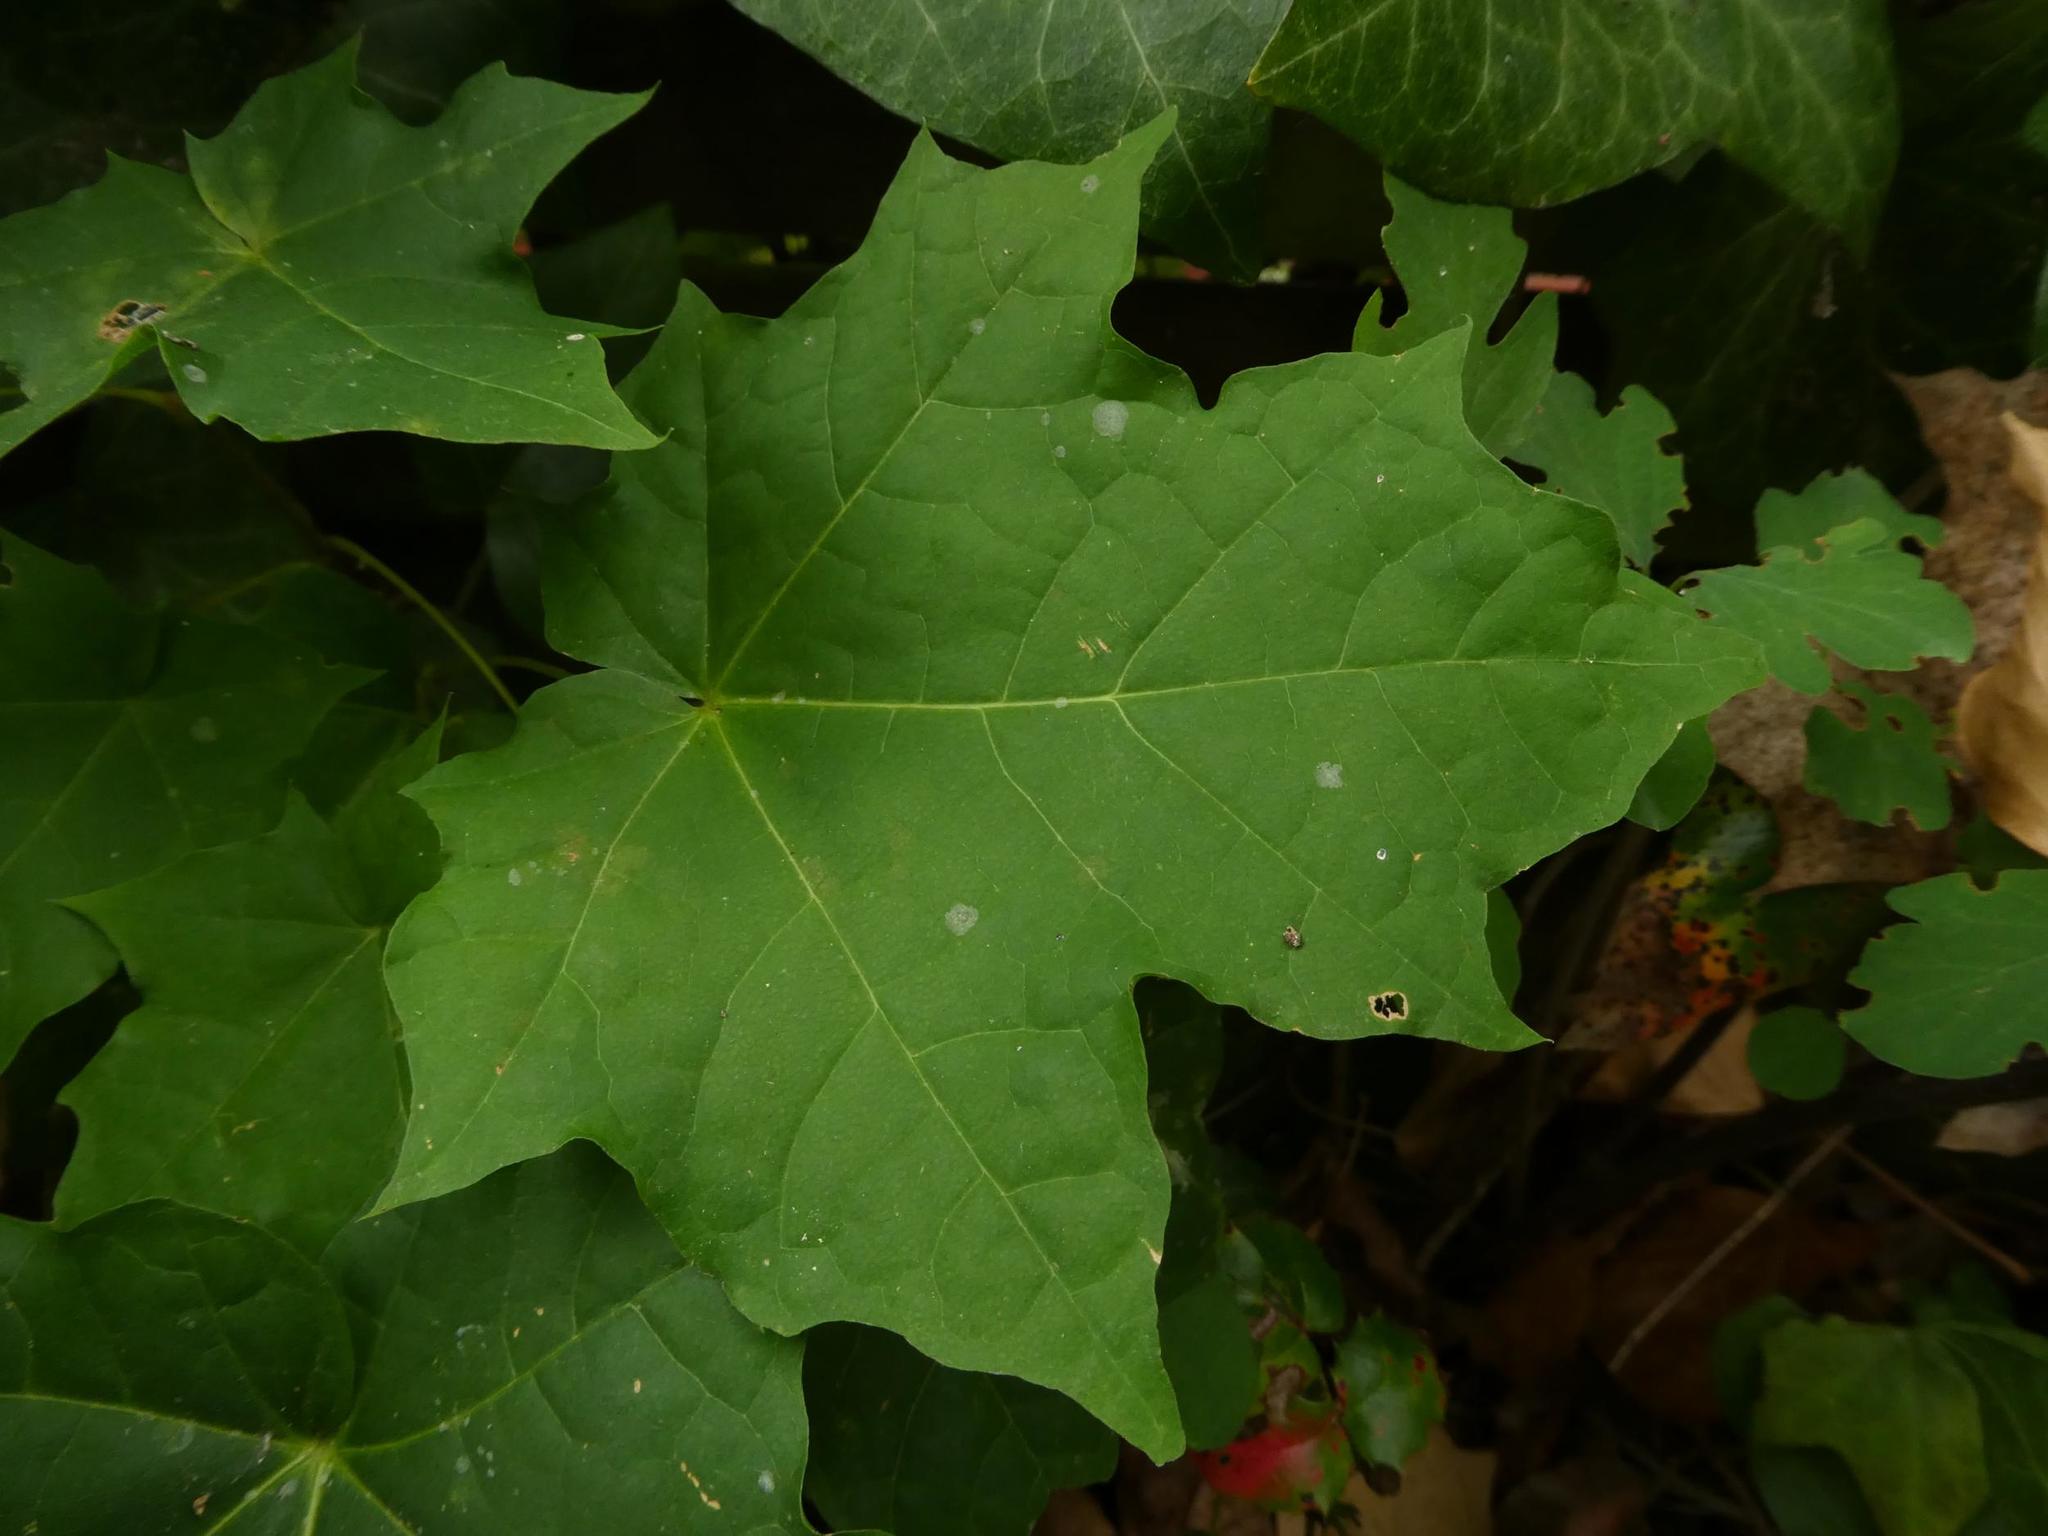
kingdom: Plantae
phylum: Tracheophyta
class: Magnoliopsida
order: Sapindales
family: Sapindaceae
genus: Acer
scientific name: Acer platanoides
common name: Norway maple
